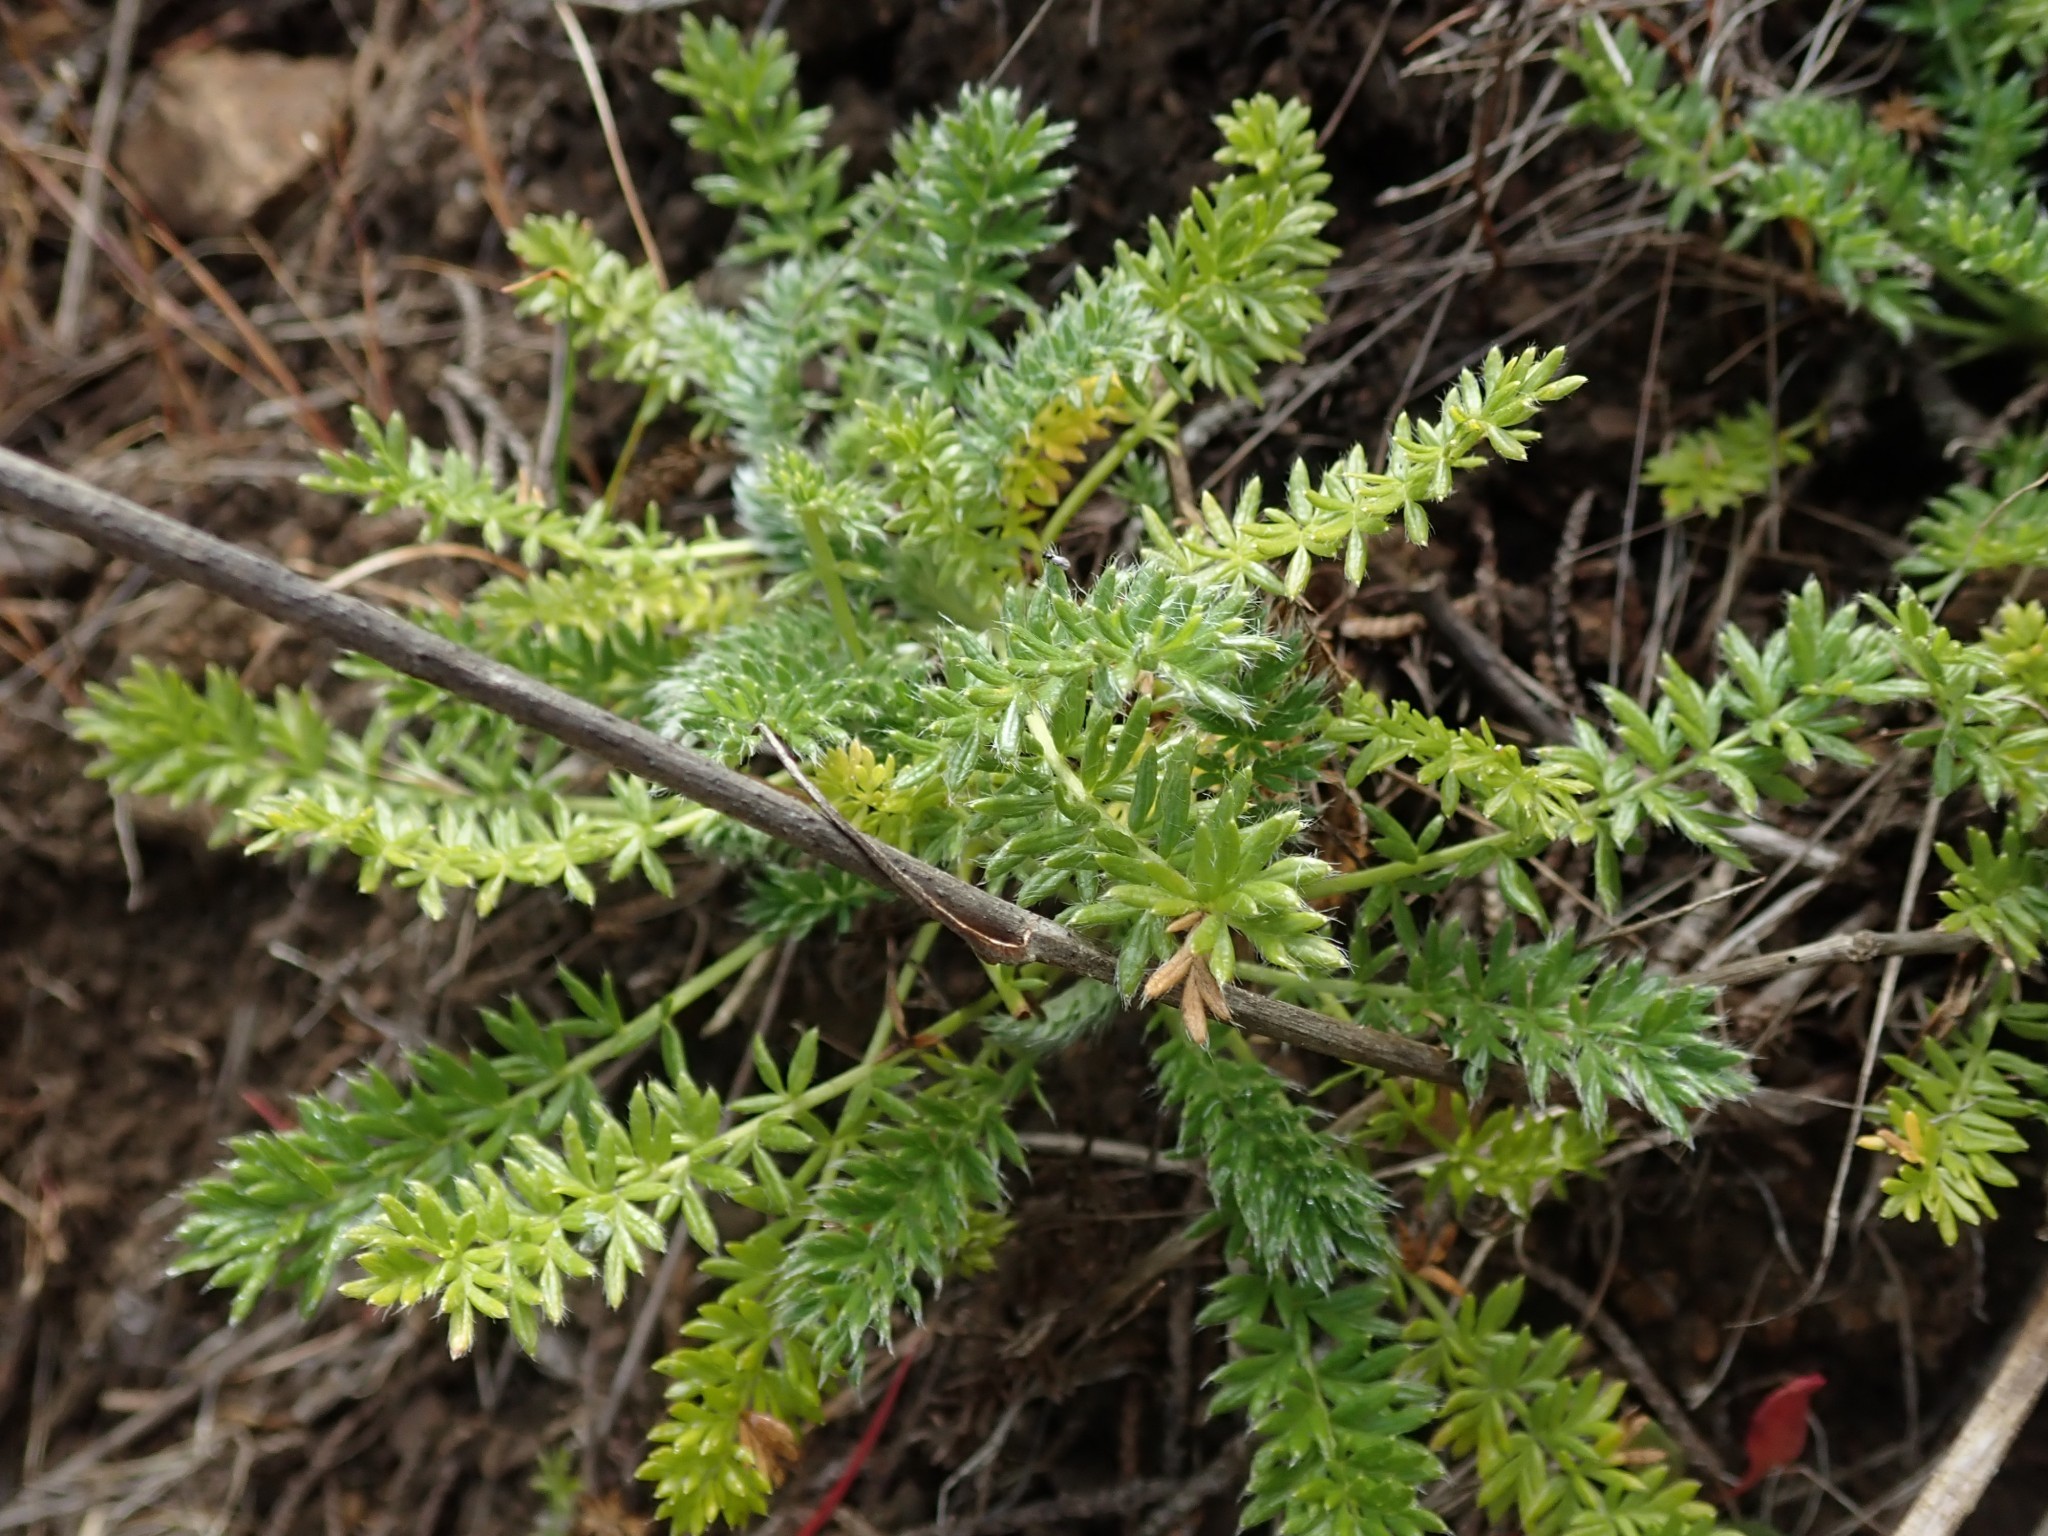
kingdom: Plantae
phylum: Tracheophyta
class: Magnoliopsida
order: Rosales
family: Rosaceae
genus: Acaena
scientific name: Acaena pinnatifida
